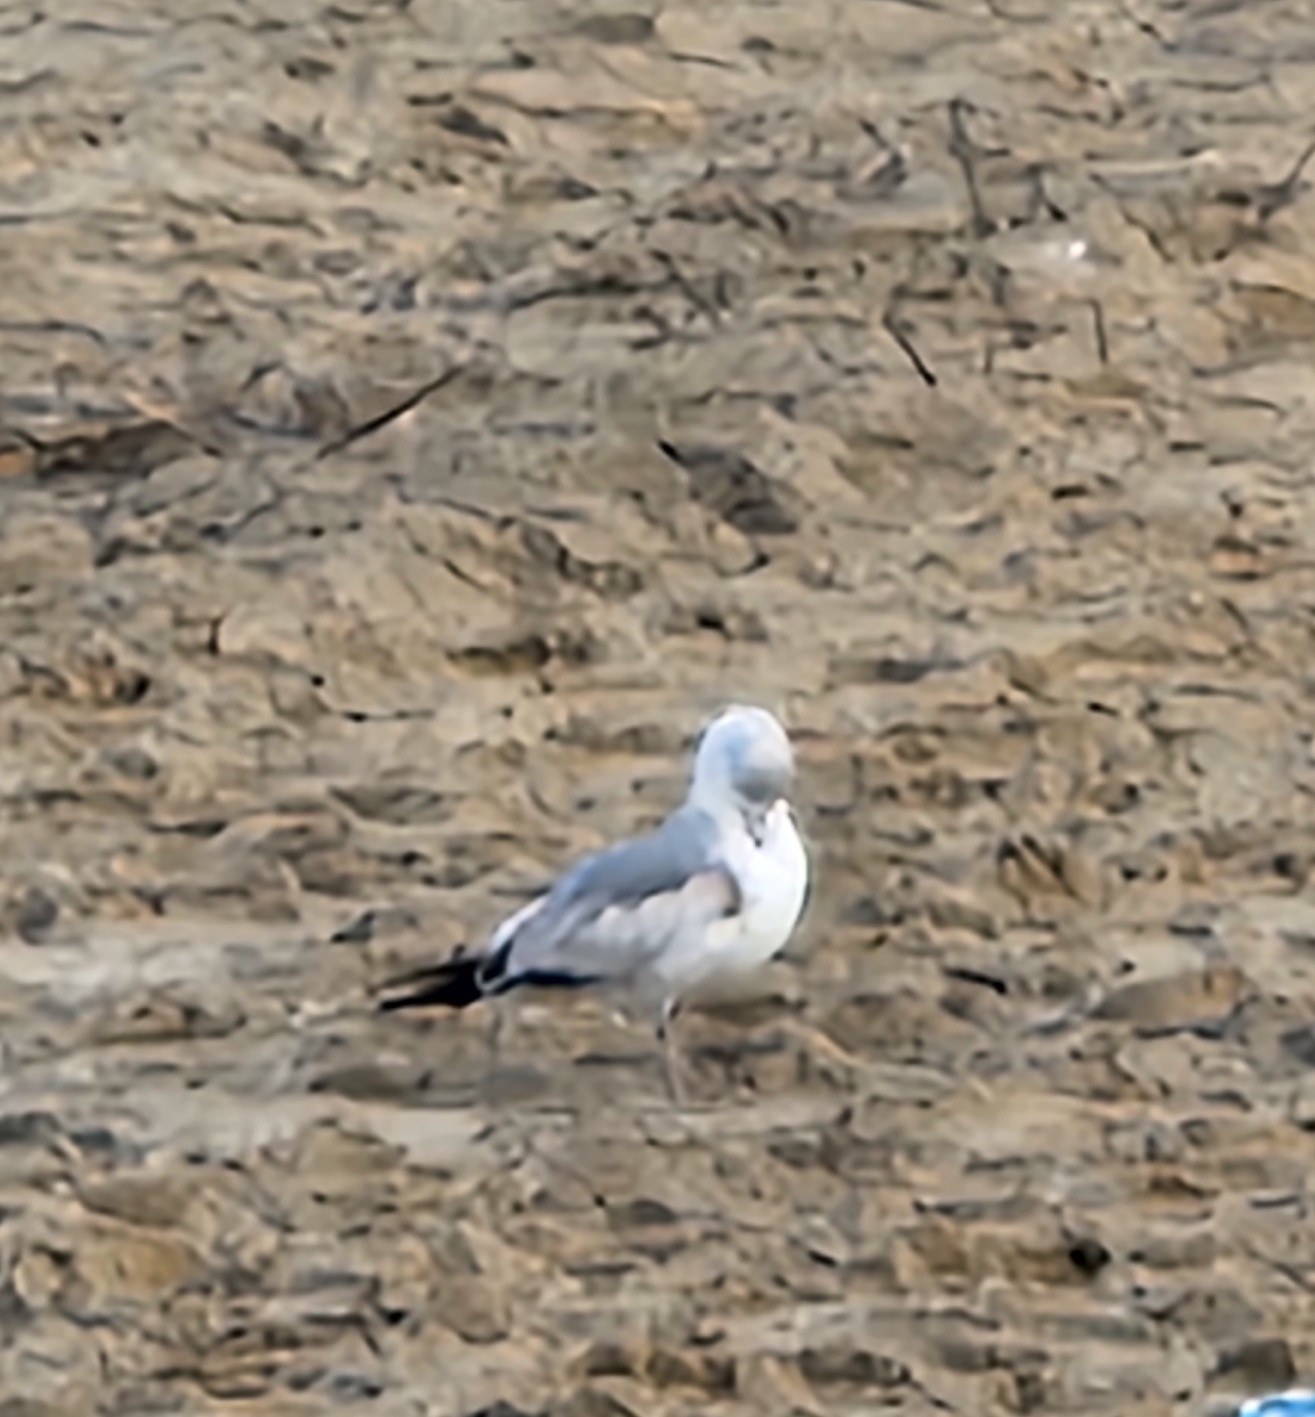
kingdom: Animalia
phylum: Chordata
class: Aves
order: Charadriiformes
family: Laridae
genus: Larus
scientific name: Larus delawarensis
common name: Ring-billed gull
